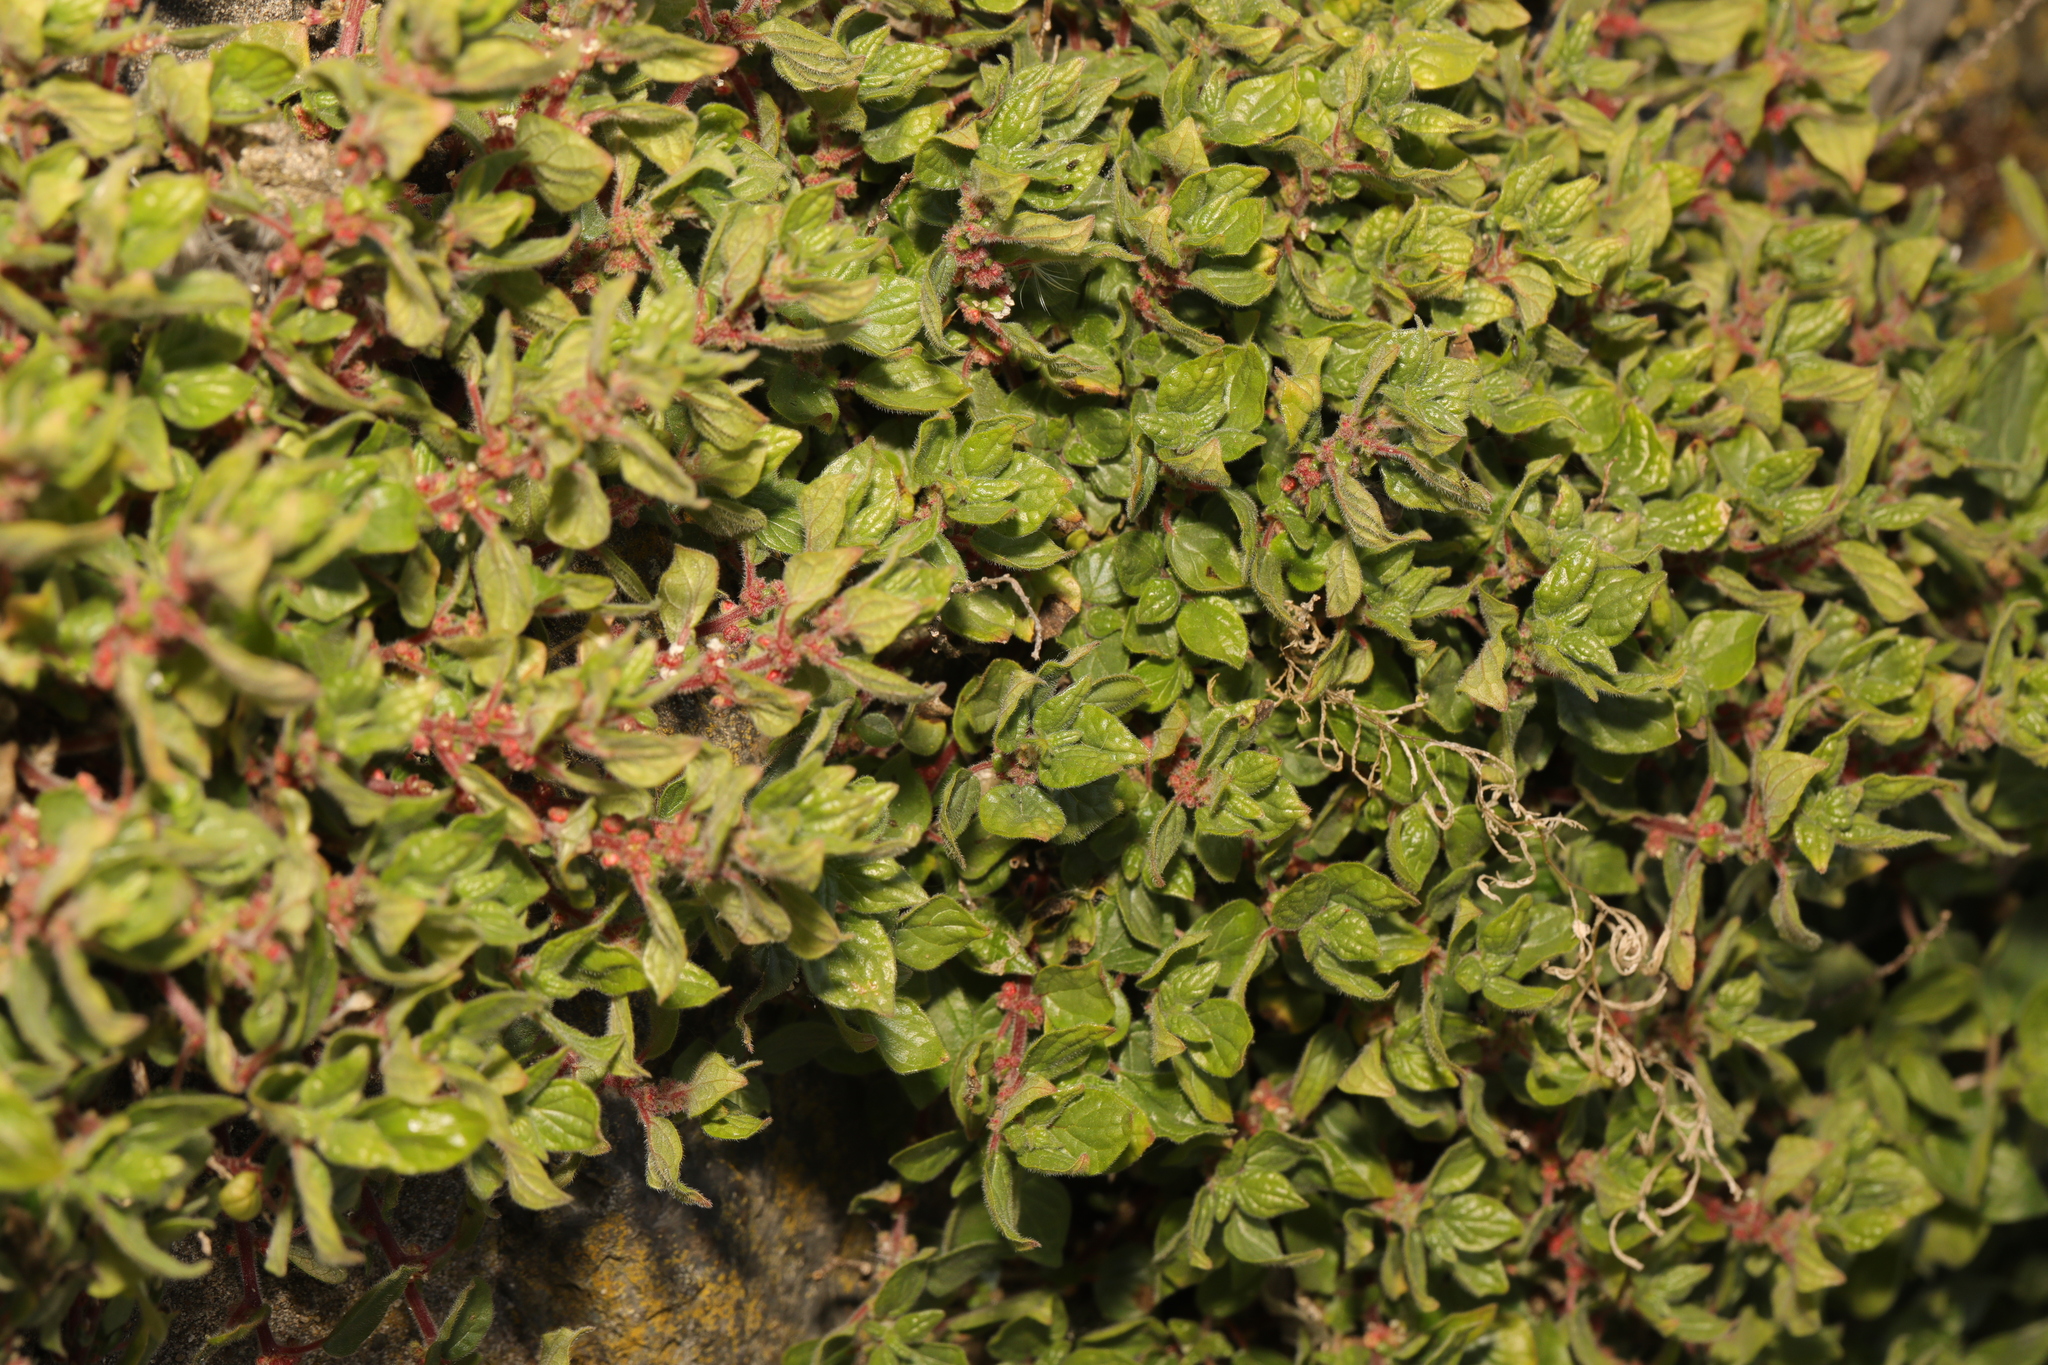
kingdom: Plantae
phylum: Tracheophyta
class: Magnoliopsida
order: Rosales
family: Urticaceae
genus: Parietaria
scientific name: Parietaria judaica
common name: Pellitory-of-the-wall
